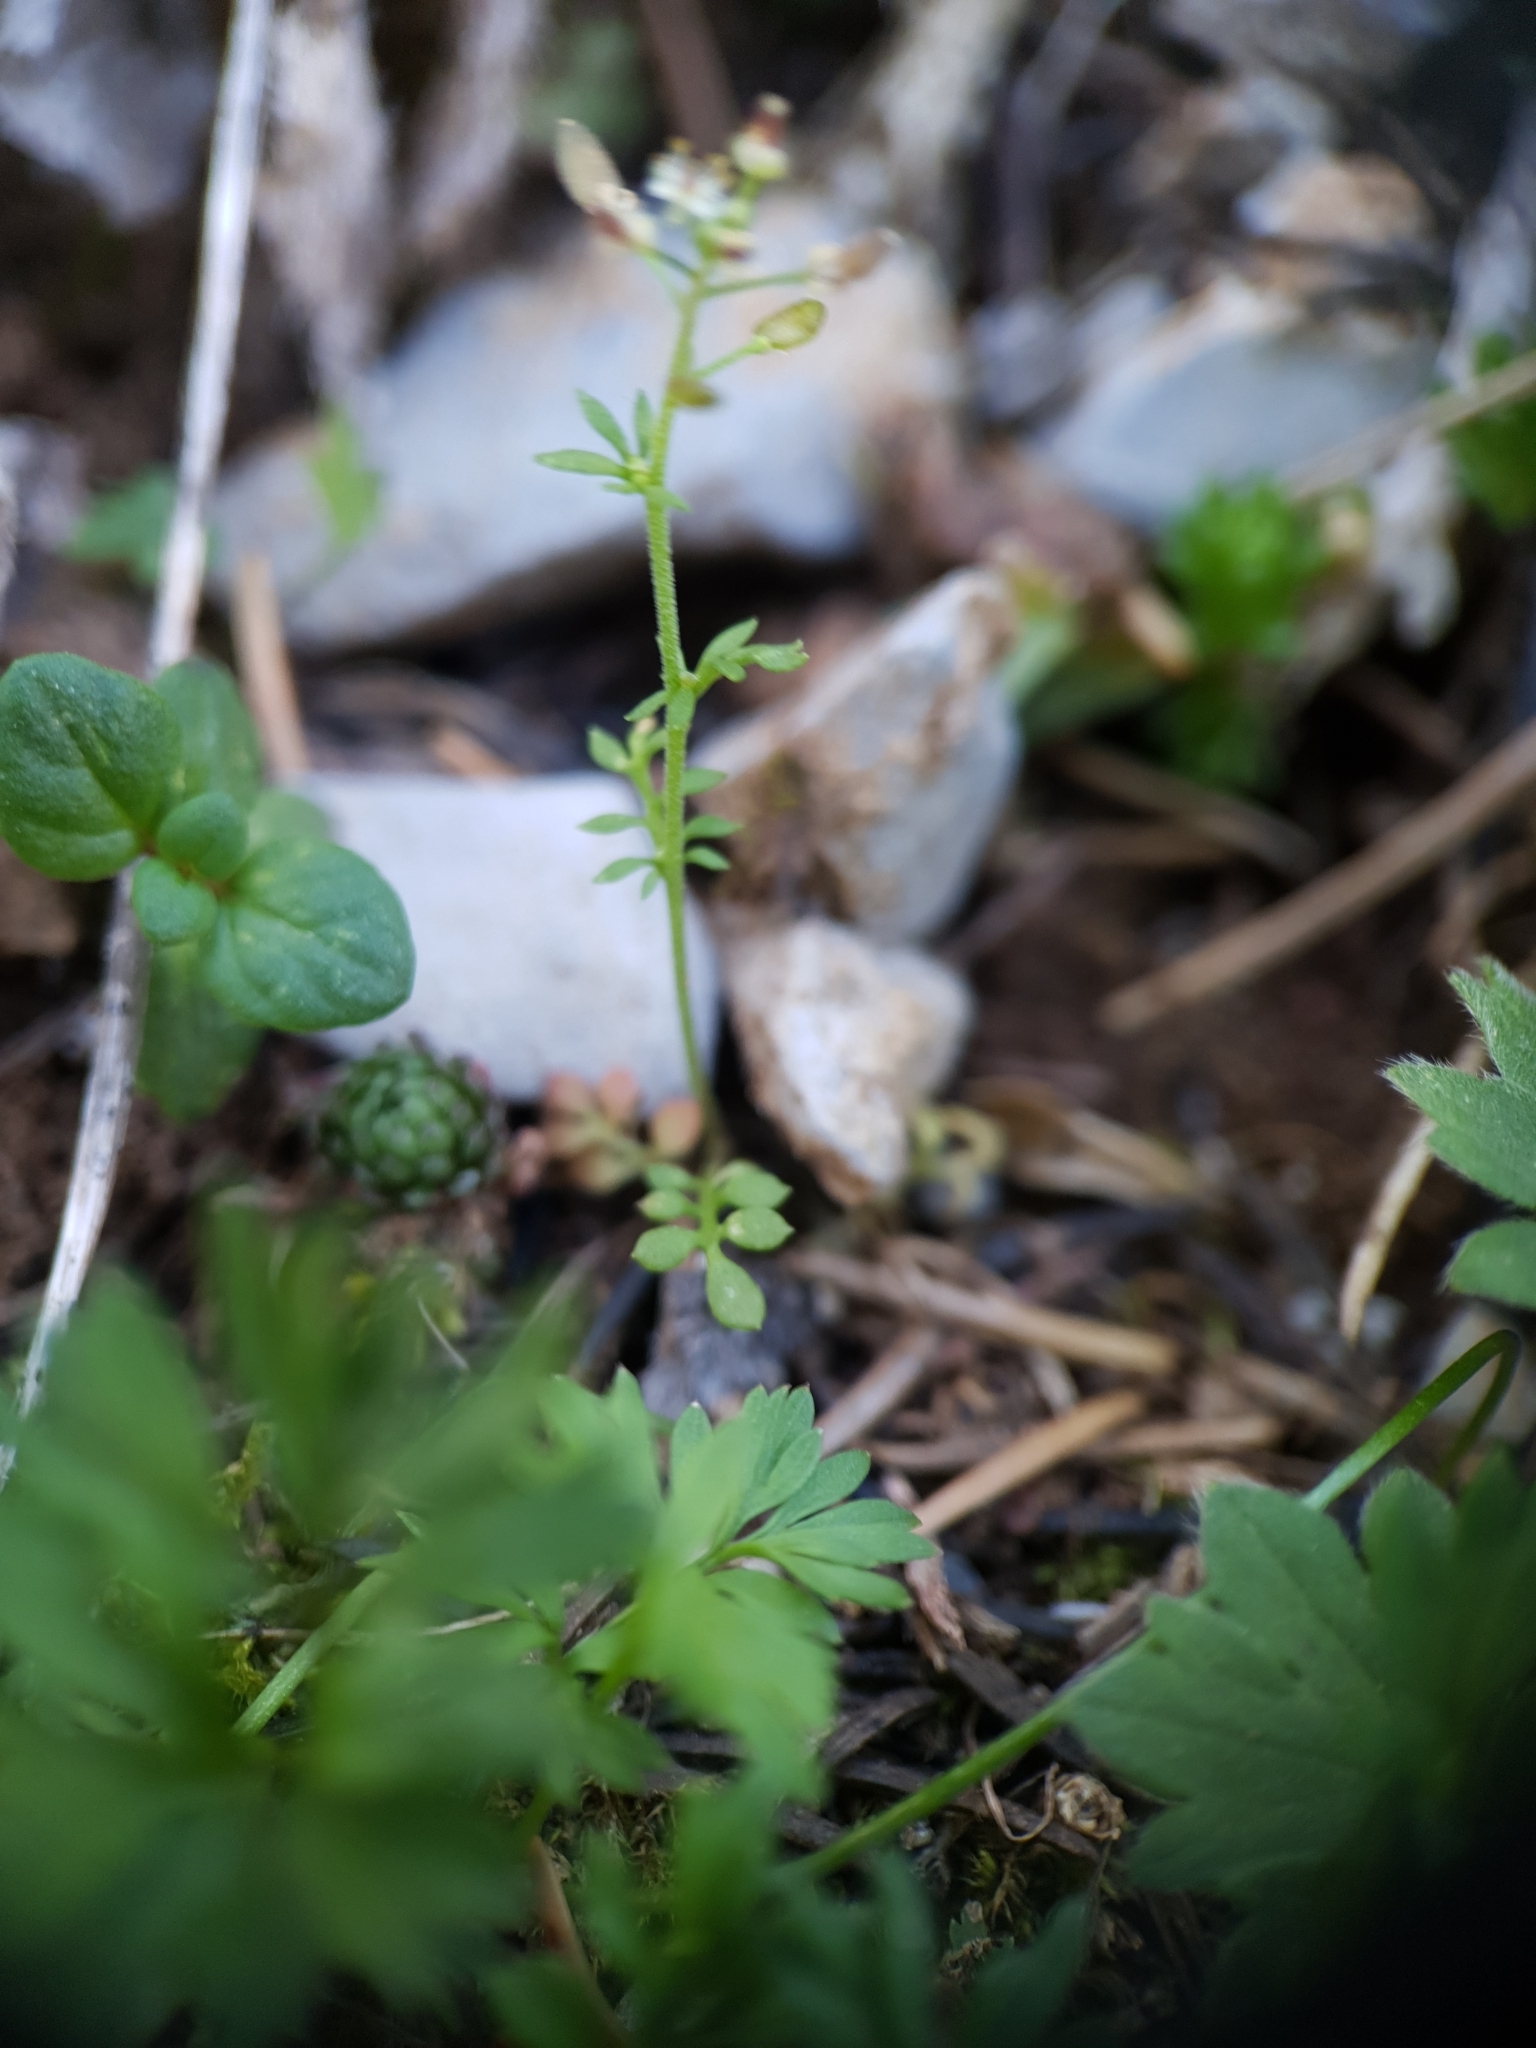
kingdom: Plantae
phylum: Tracheophyta
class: Magnoliopsida
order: Brassicales
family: Brassicaceae
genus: Hornungia
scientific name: Hornungia petraea
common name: Hutchinsia
